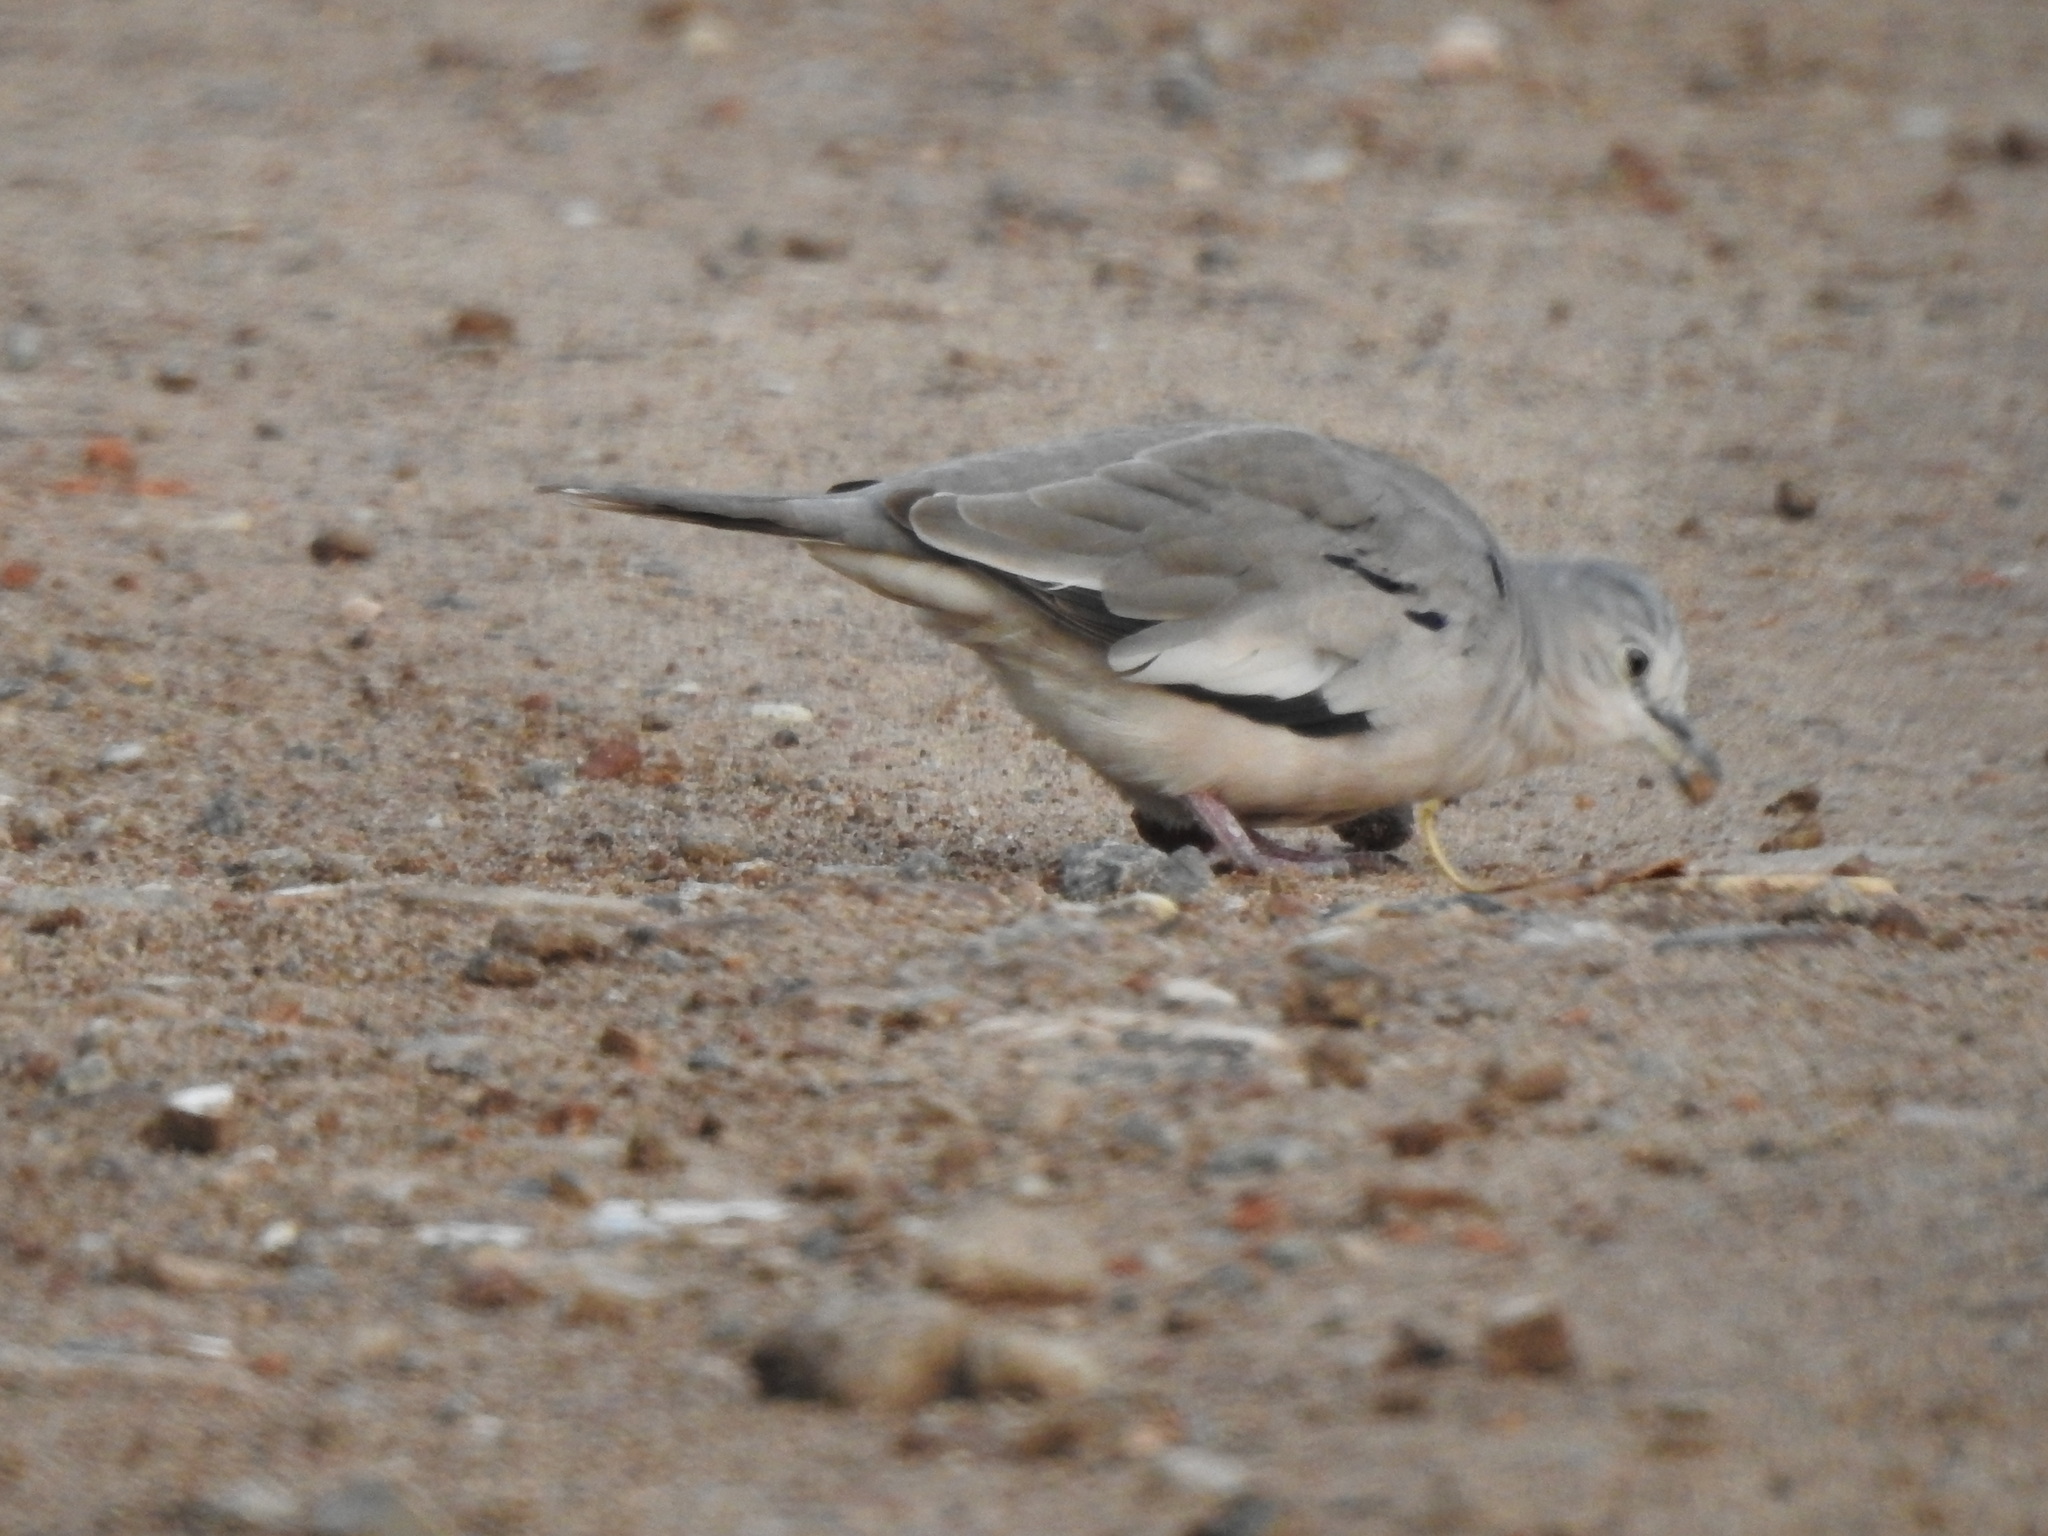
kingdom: Animalia
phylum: Chordata
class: Aves
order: Columbiformes
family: Columbidae
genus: Columbina
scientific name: Columbina picui
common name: Picui ground dove
